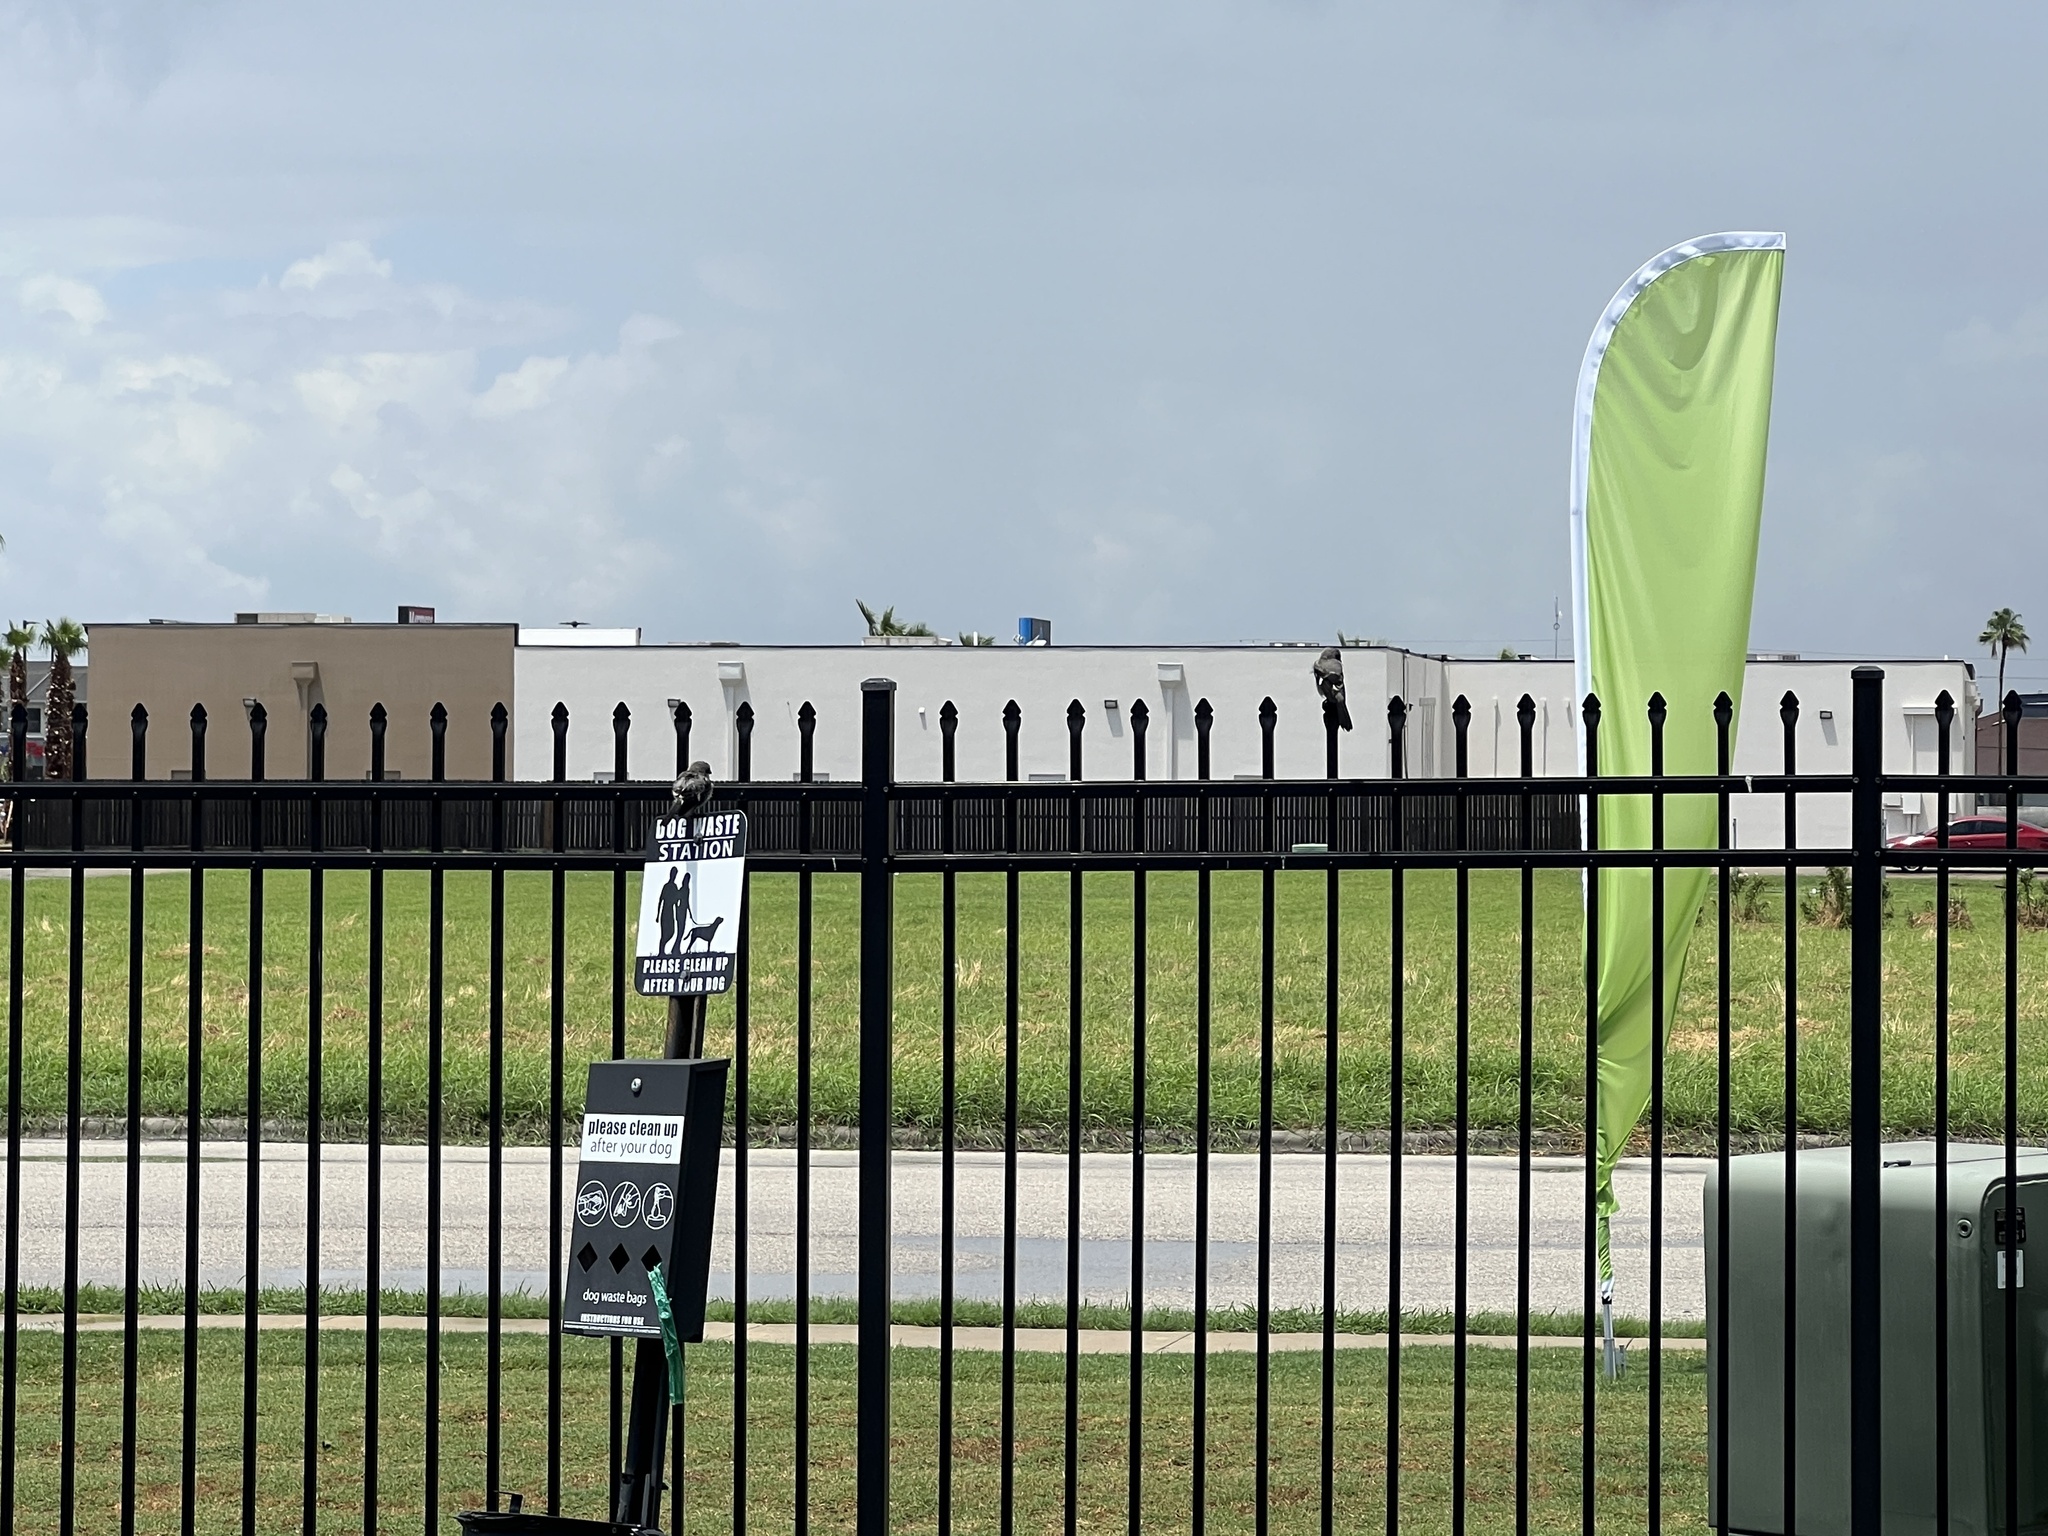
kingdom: Animalia
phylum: Chordata
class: Aves
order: Passeriformes
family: Laniidae
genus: Lanius
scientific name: Lanius ludovicianus
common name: Loggerhead shrike
